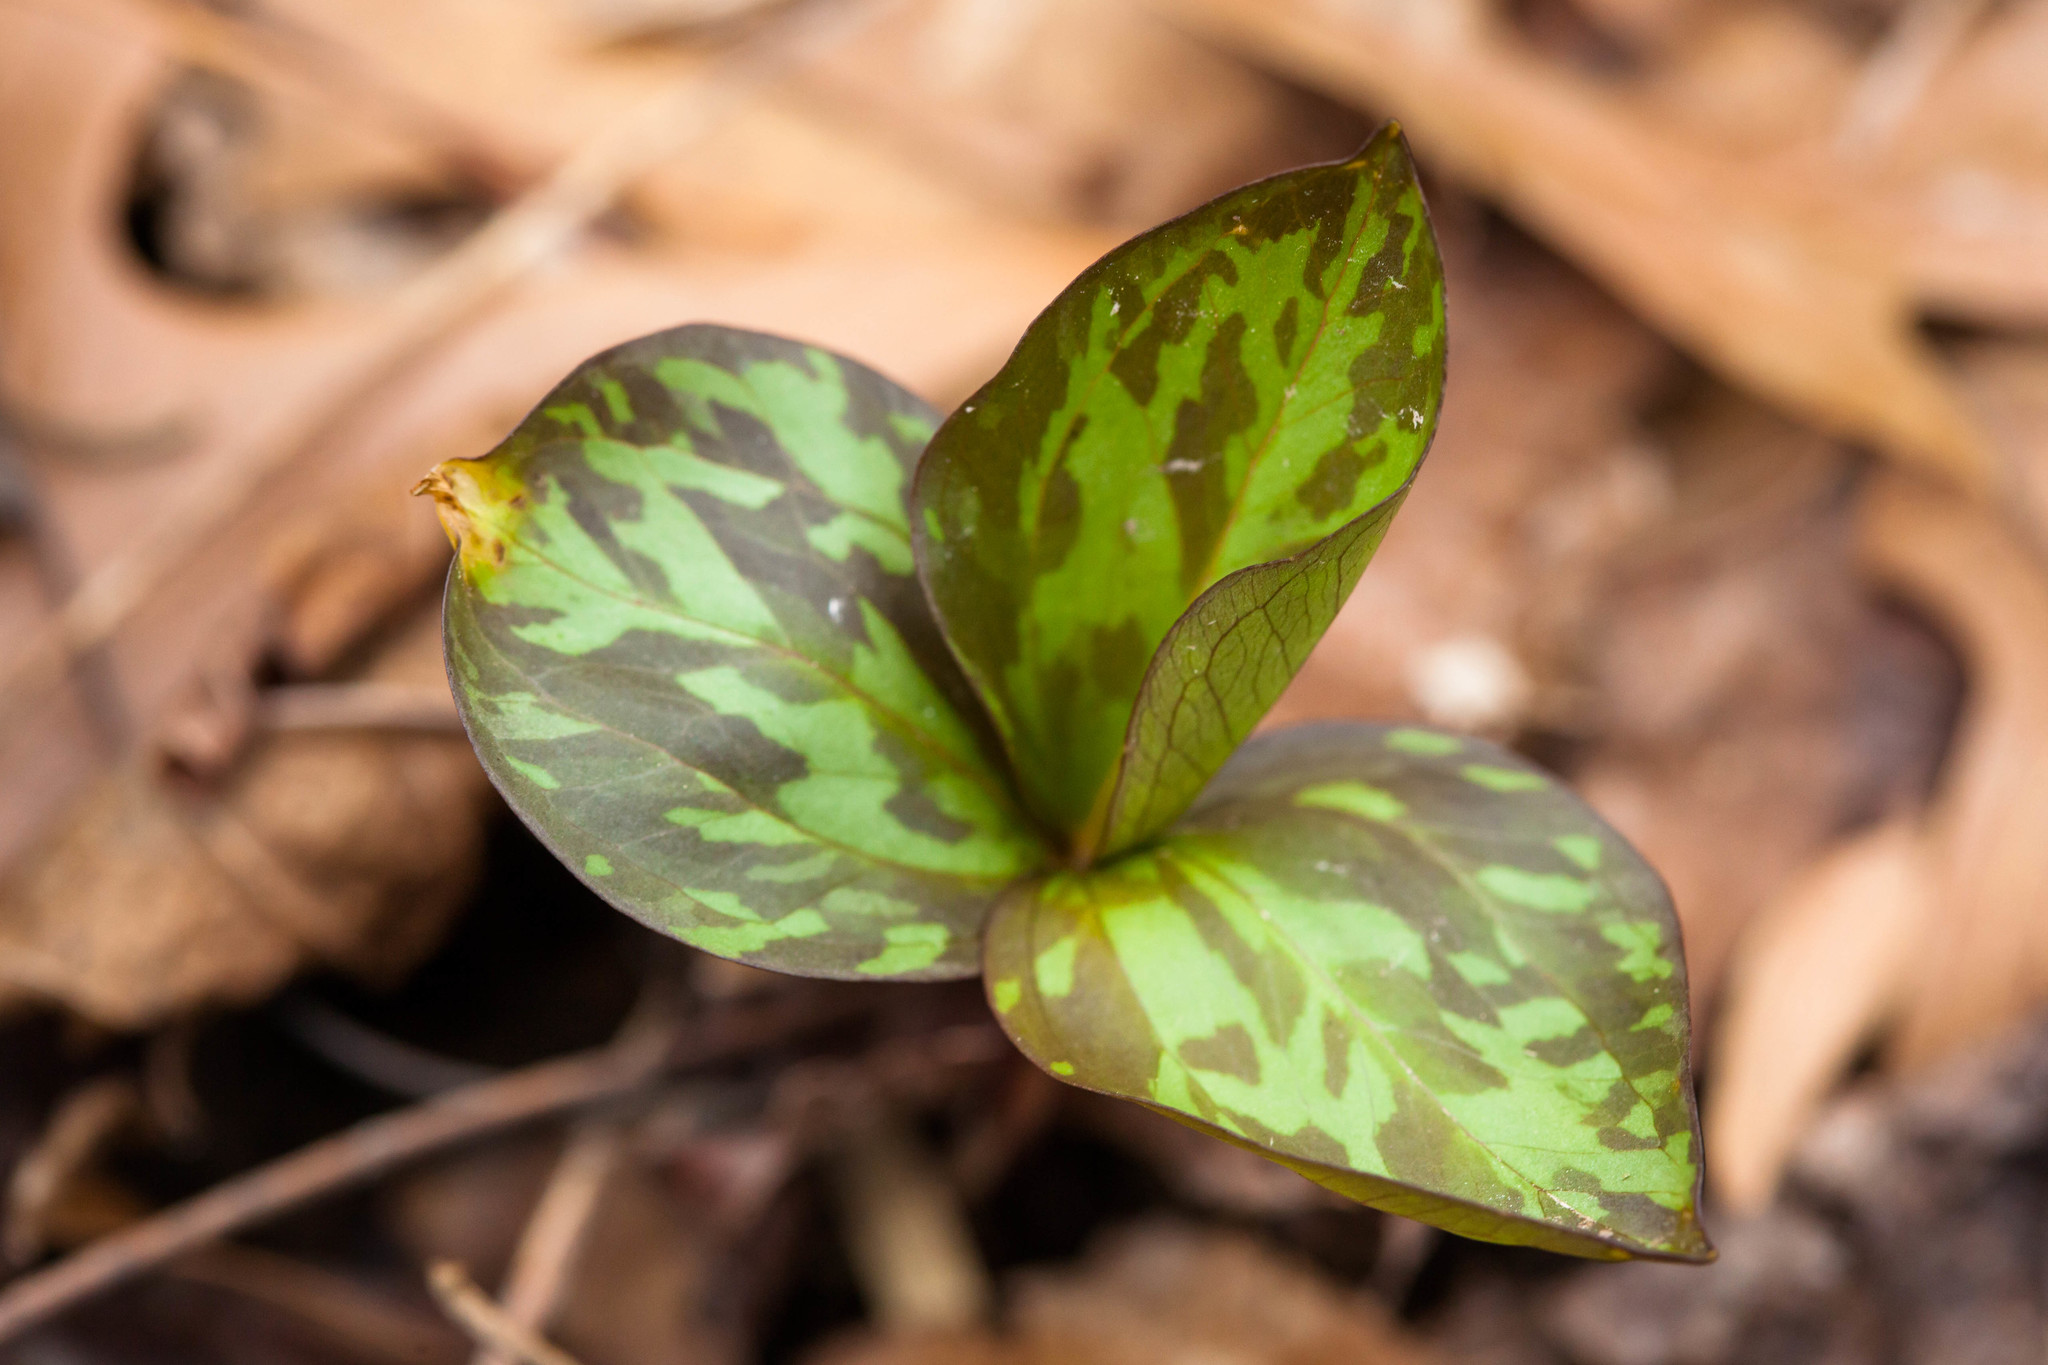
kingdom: Plantae
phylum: Tracheophyta
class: Liliopsida
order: Liliales
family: Melanthiaceae
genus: Trillium
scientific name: Trillium recurvatum
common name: Bloody butcher
